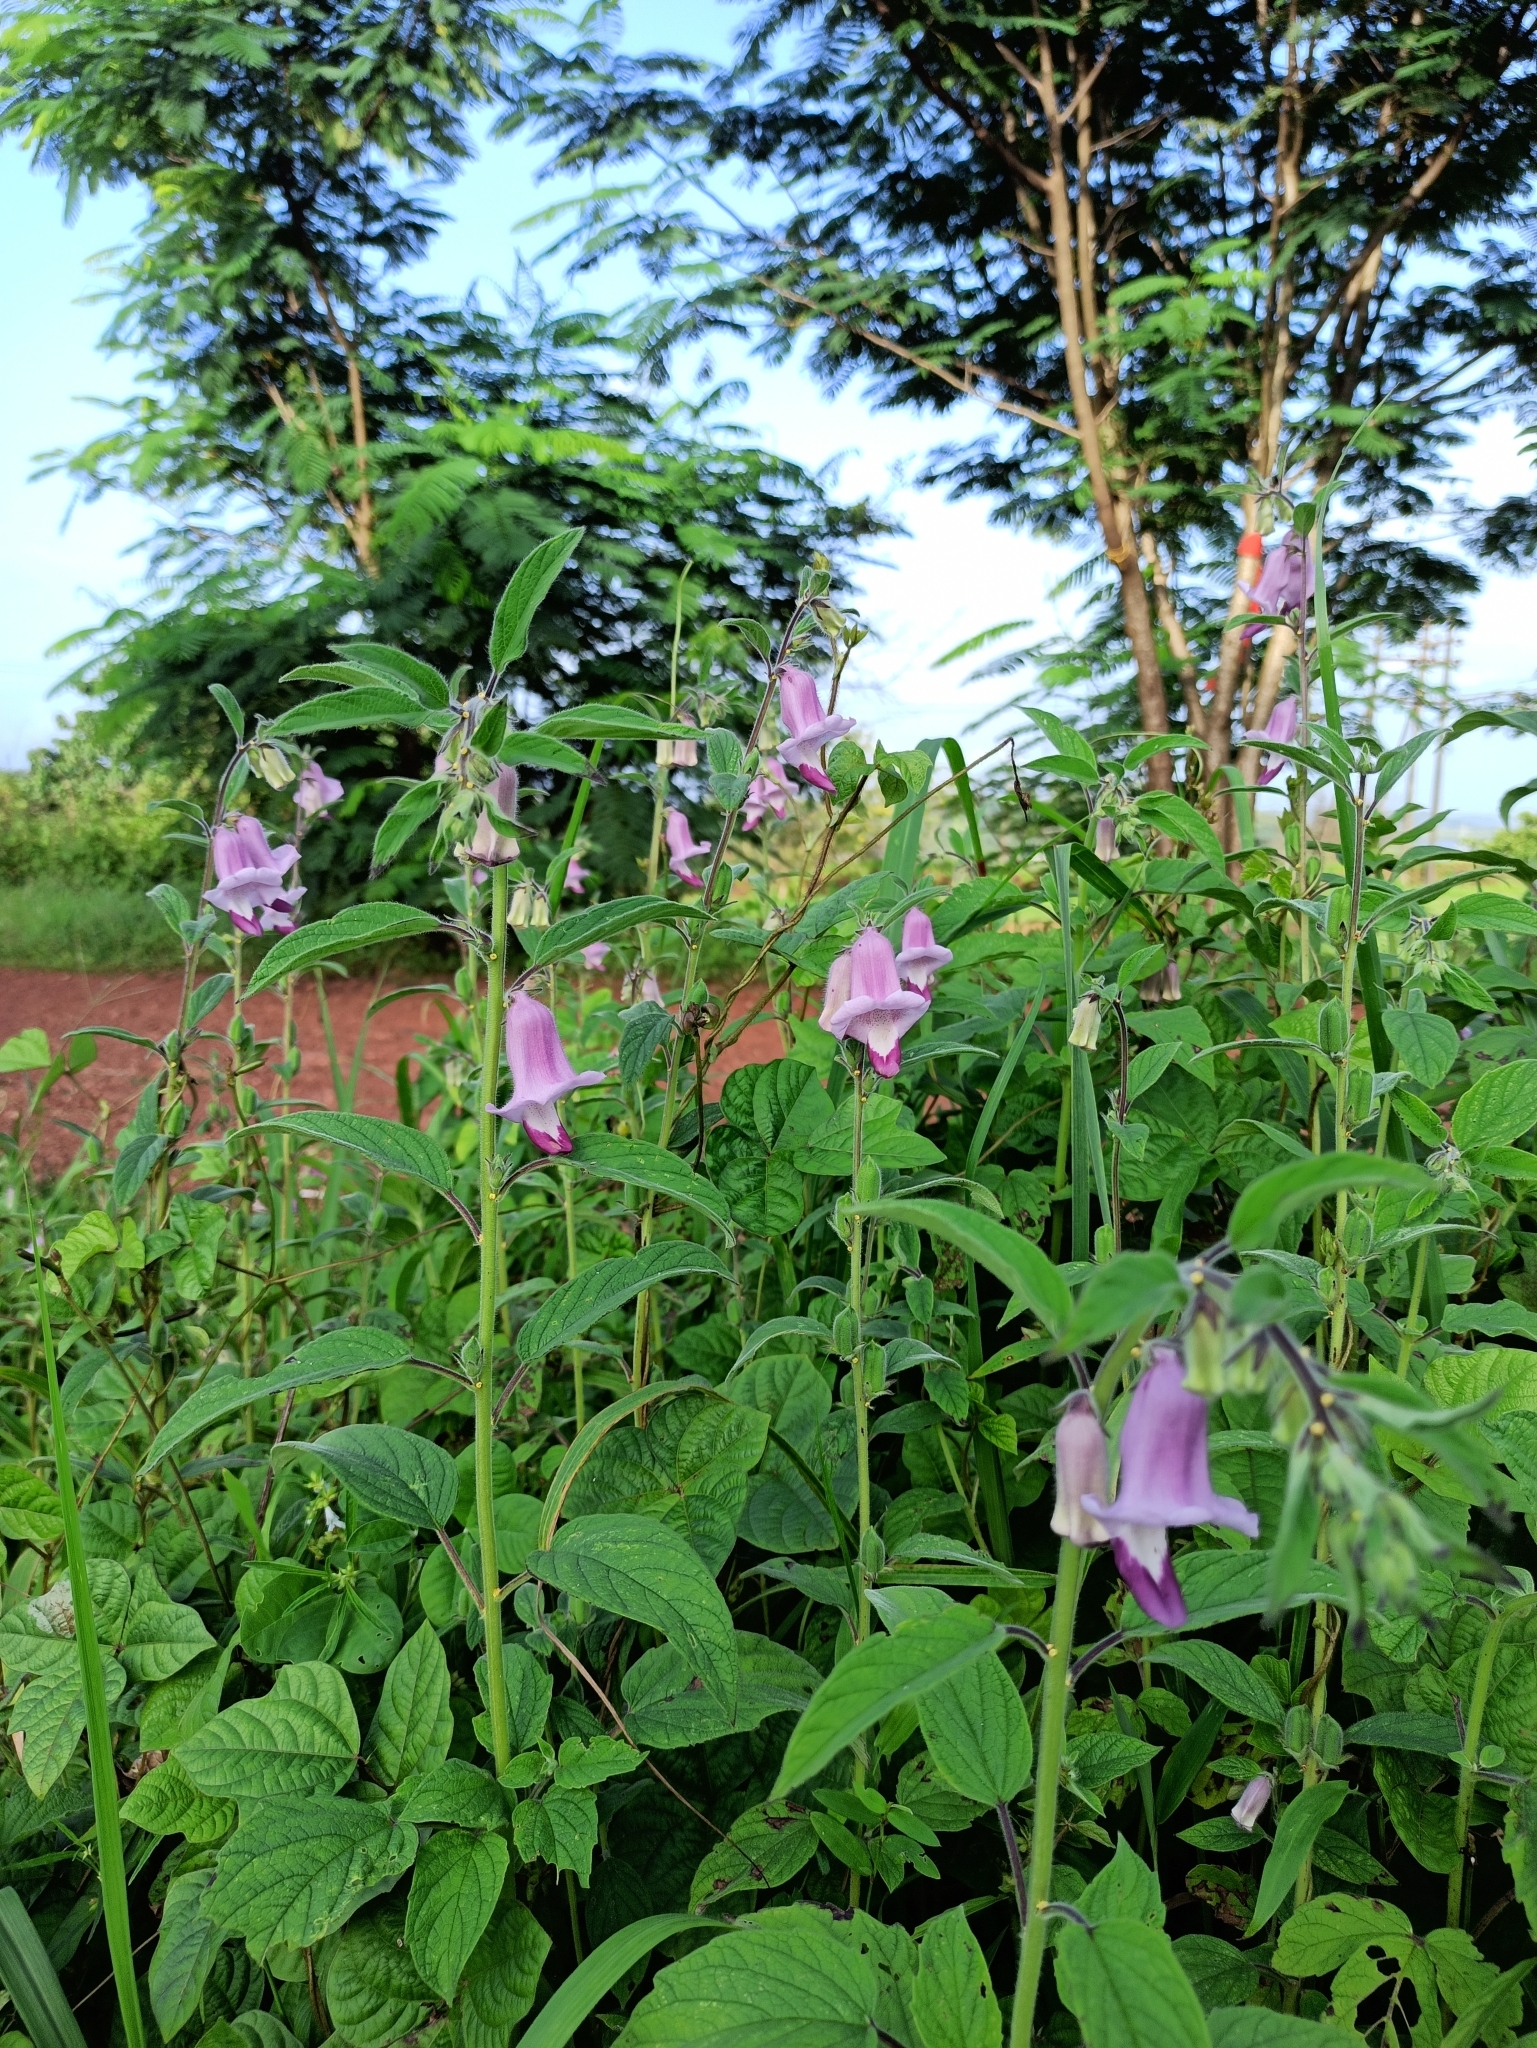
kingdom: Plantae
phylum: Tracheophyta
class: Magnoliopsida
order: Lamiales
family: Pedaliaceae
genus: Sesamum
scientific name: Sesamum indicum
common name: Sesame
